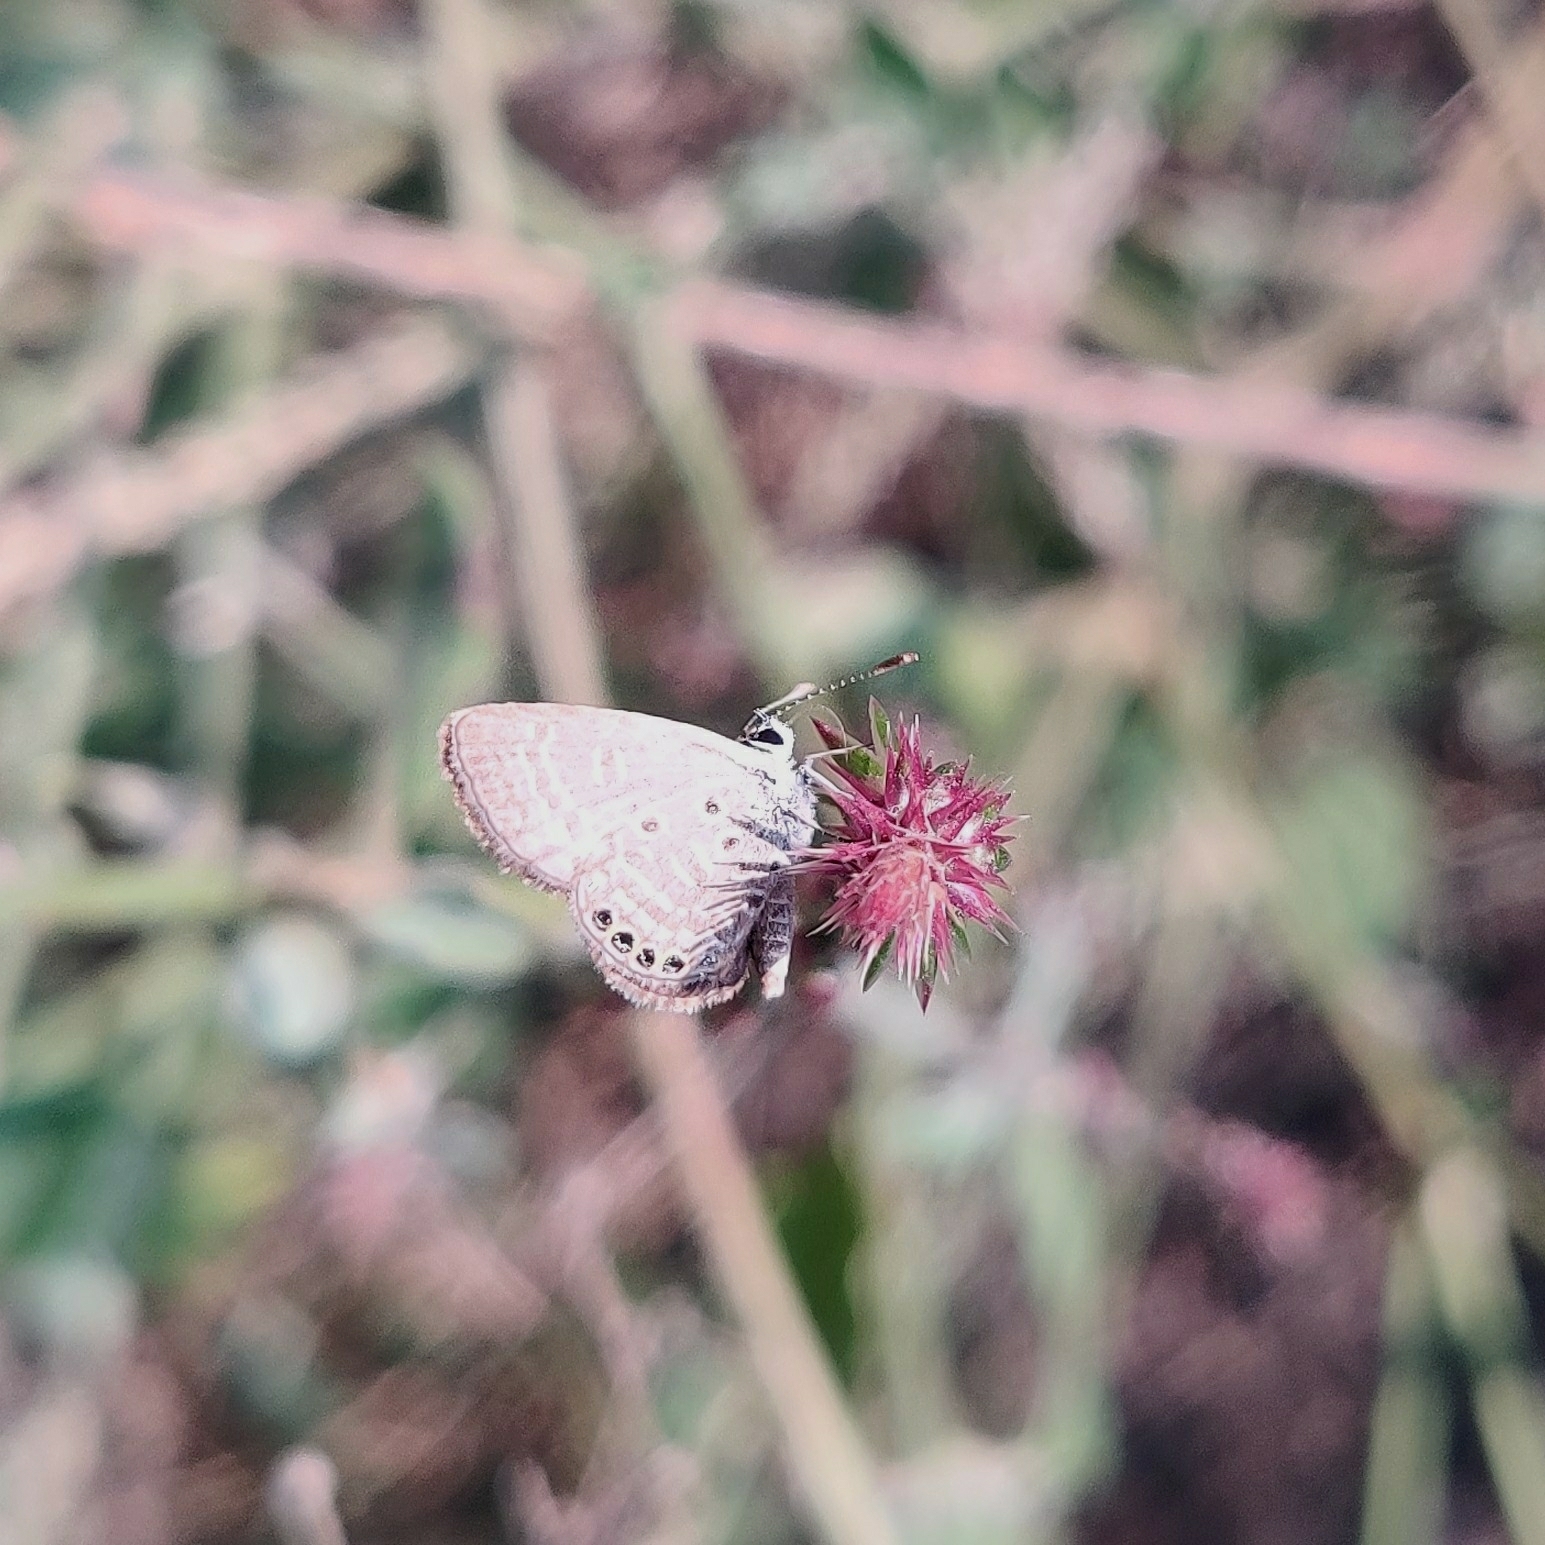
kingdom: Animalia
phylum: Arthropoda
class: Insecta
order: Lepidoptera
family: Lycaenidae
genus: Freyeria
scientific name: Freyeria putli
